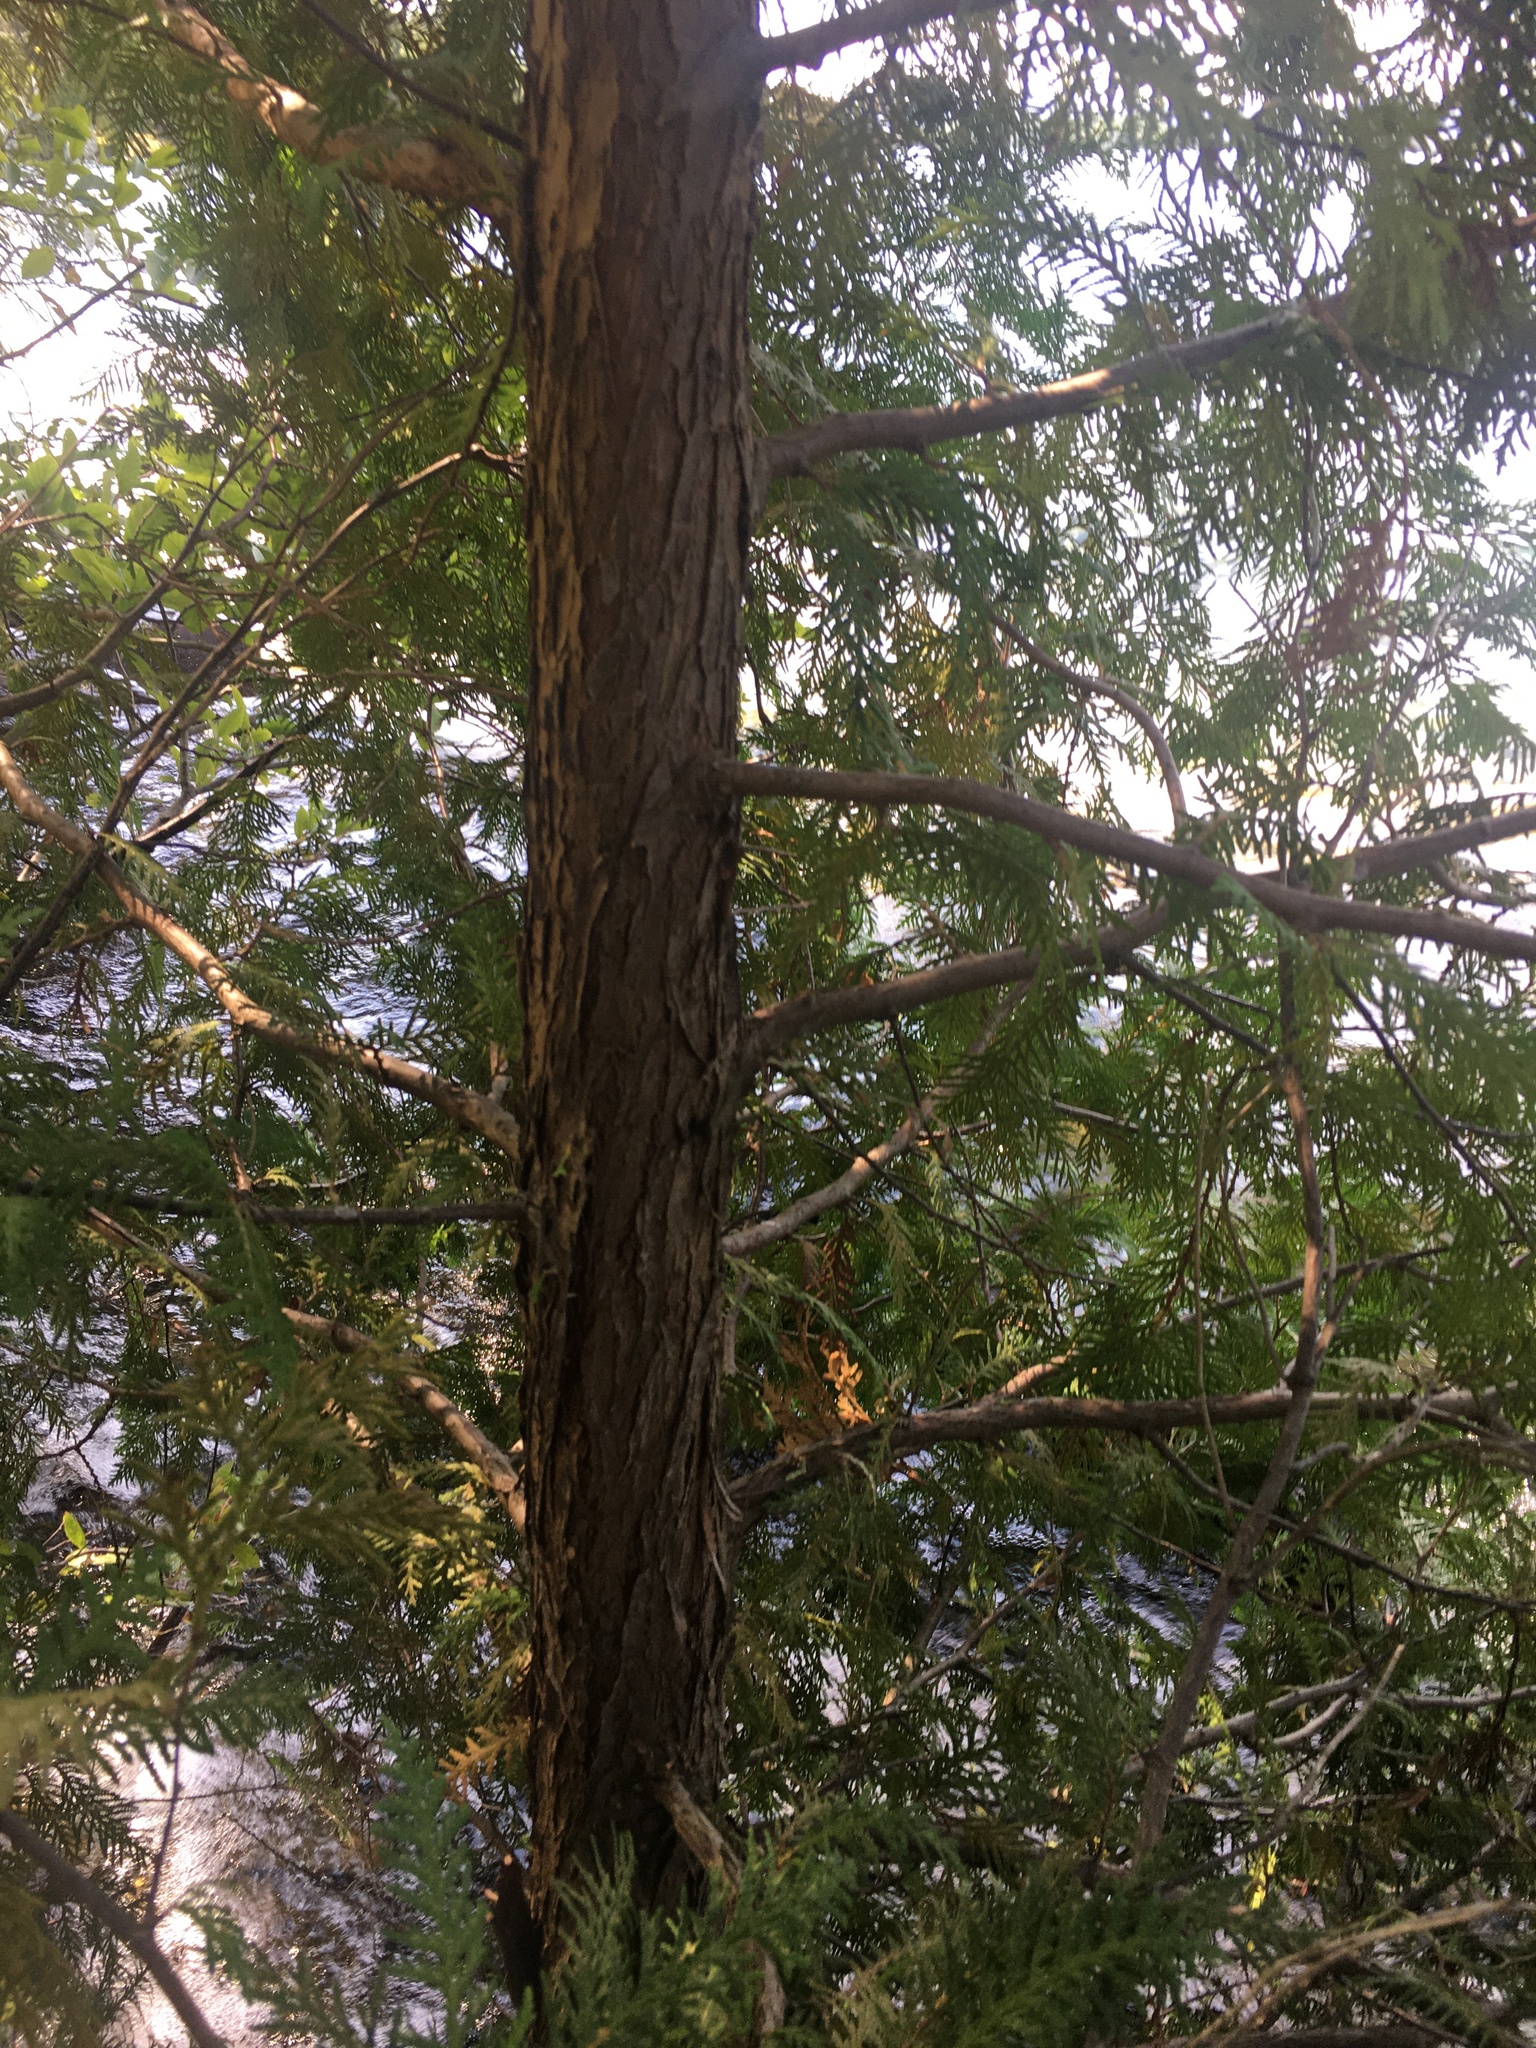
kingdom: Plantae
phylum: Tracheophyta
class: Pinopsida
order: Pinales
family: Cupressaceae
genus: Thuja
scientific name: Thuja occidentalis
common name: Northern white-cedar
